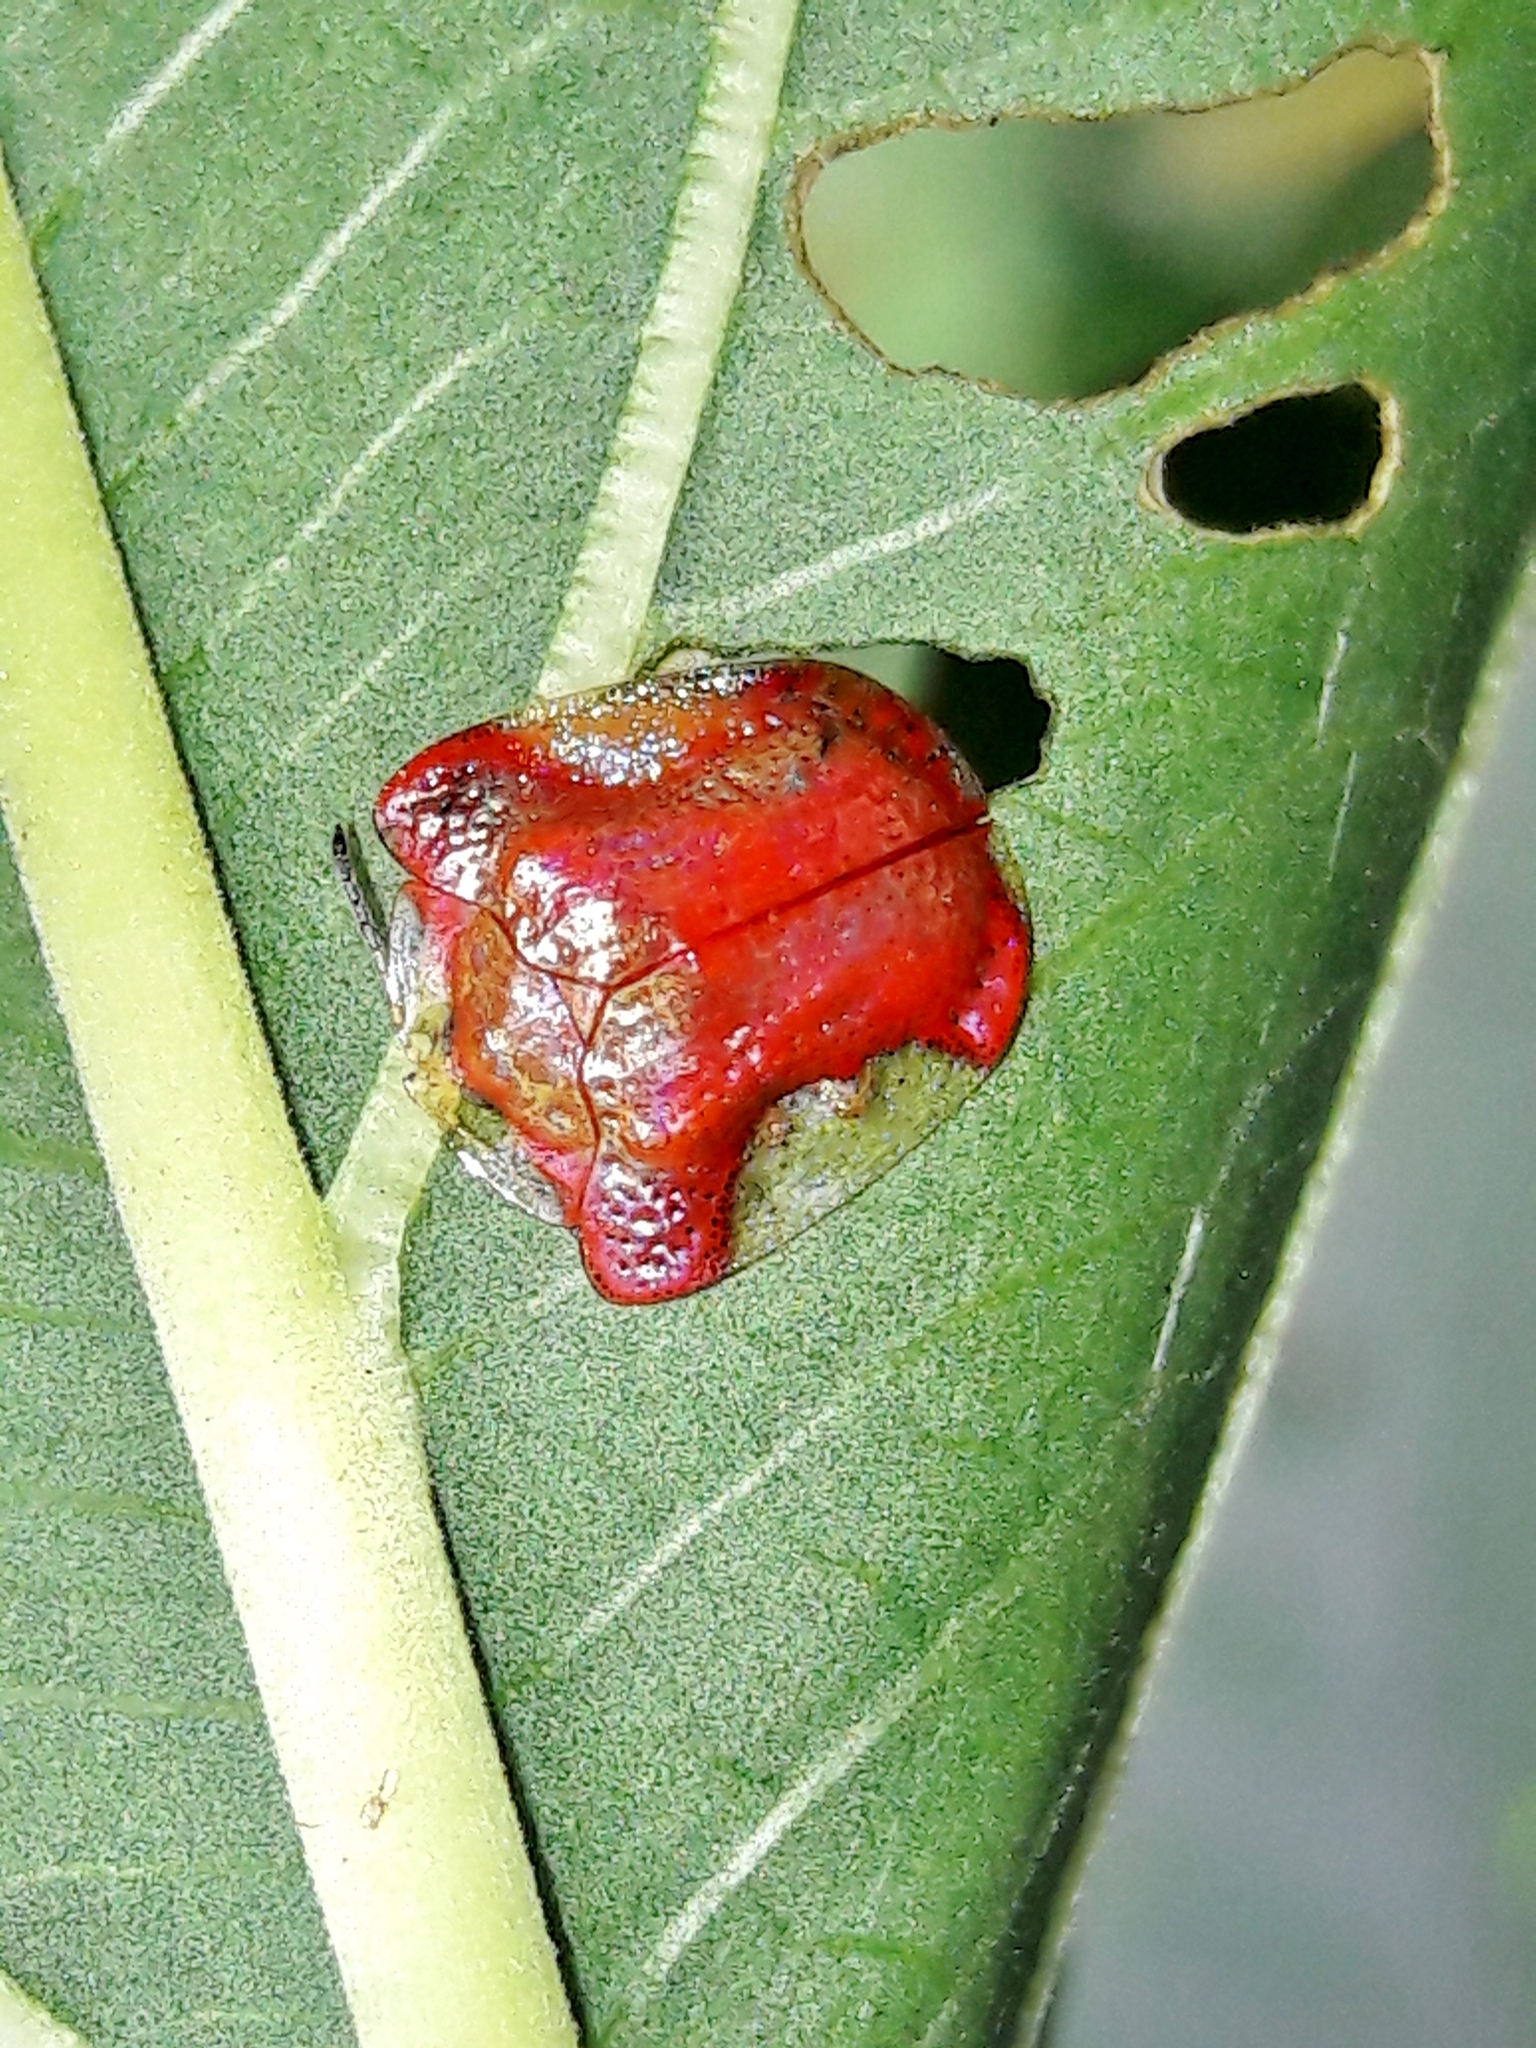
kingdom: Animalia
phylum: Arthropoda
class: Insecta
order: Coleoptera
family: Chrysomelidae
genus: Charidotella
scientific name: Charidotella rubicunda
